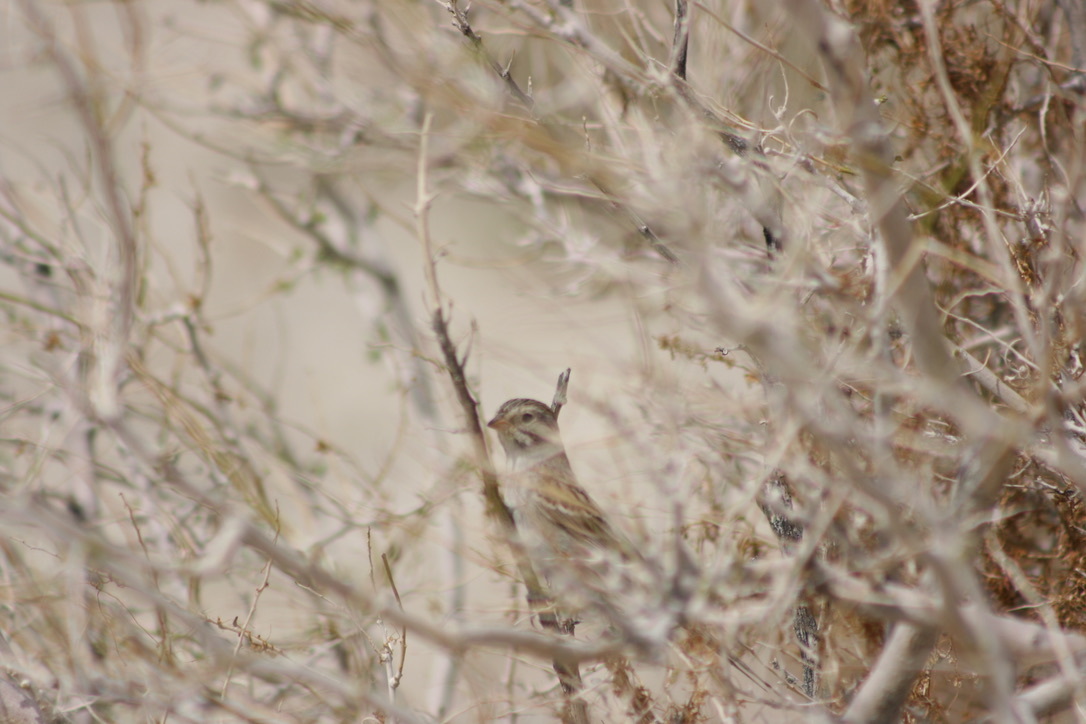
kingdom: Animalia
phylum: Chordata
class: Aves
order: Passeriformes
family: Passerellidae
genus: Spizella
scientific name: Spizella passerina
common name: Chipping sparrow
